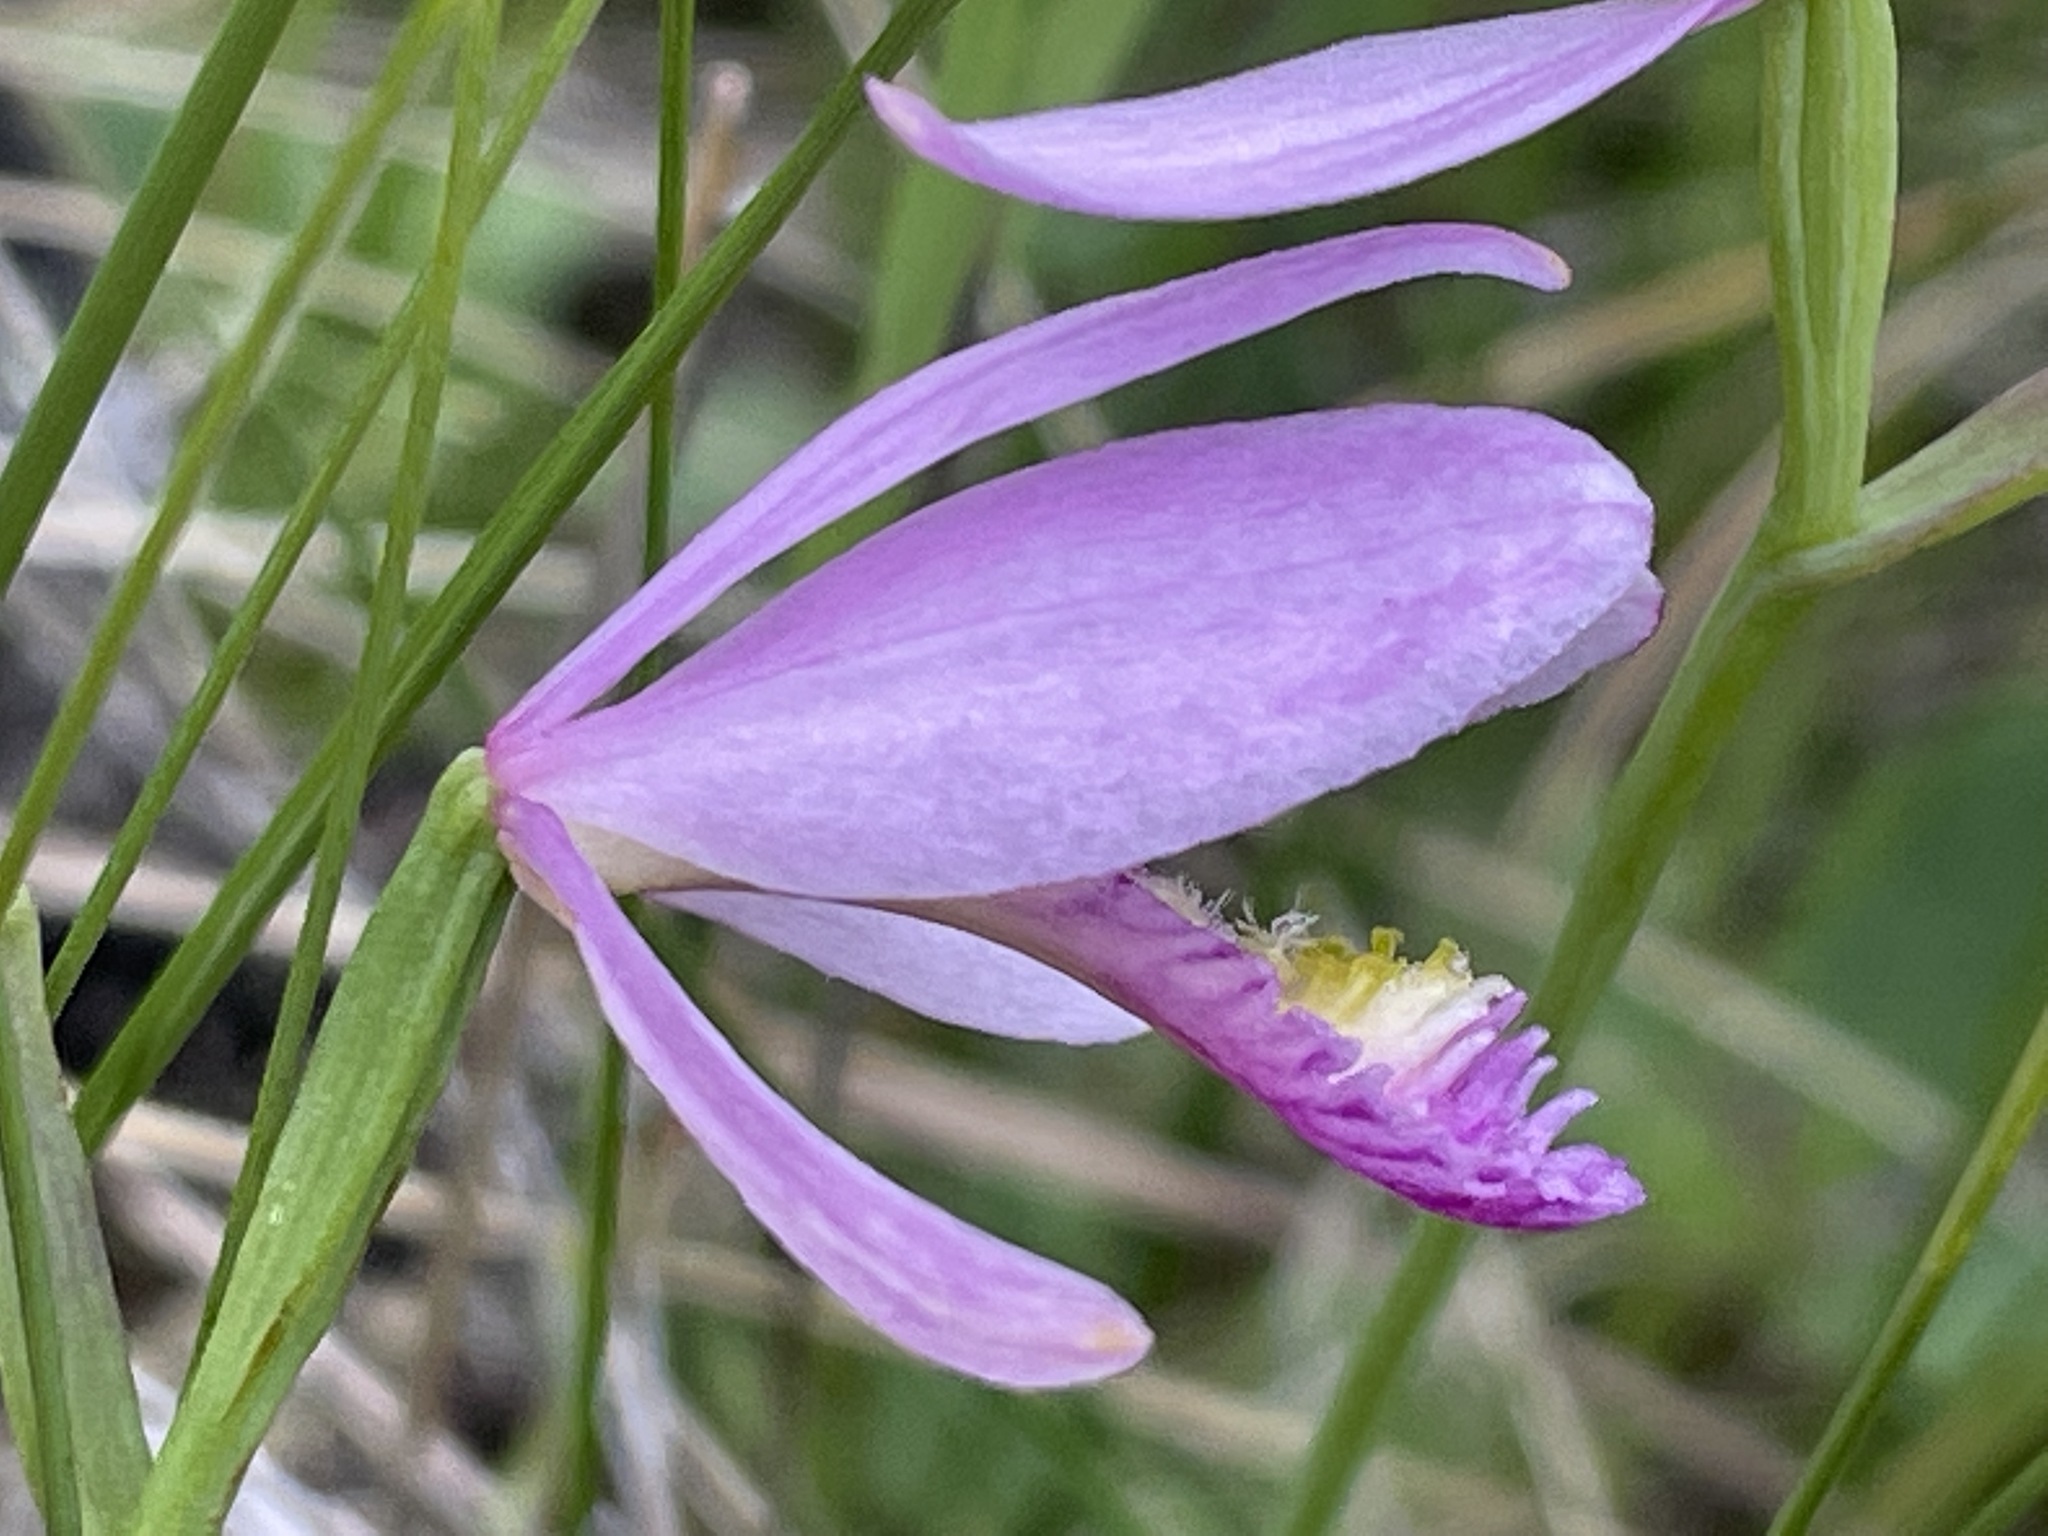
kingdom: Plantae
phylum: Tracheophyta
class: Liliopsida
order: Asparagales
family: Orchidaceae
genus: Pogonia
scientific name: Pogonia ophioglossoides
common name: Rose pogonia
